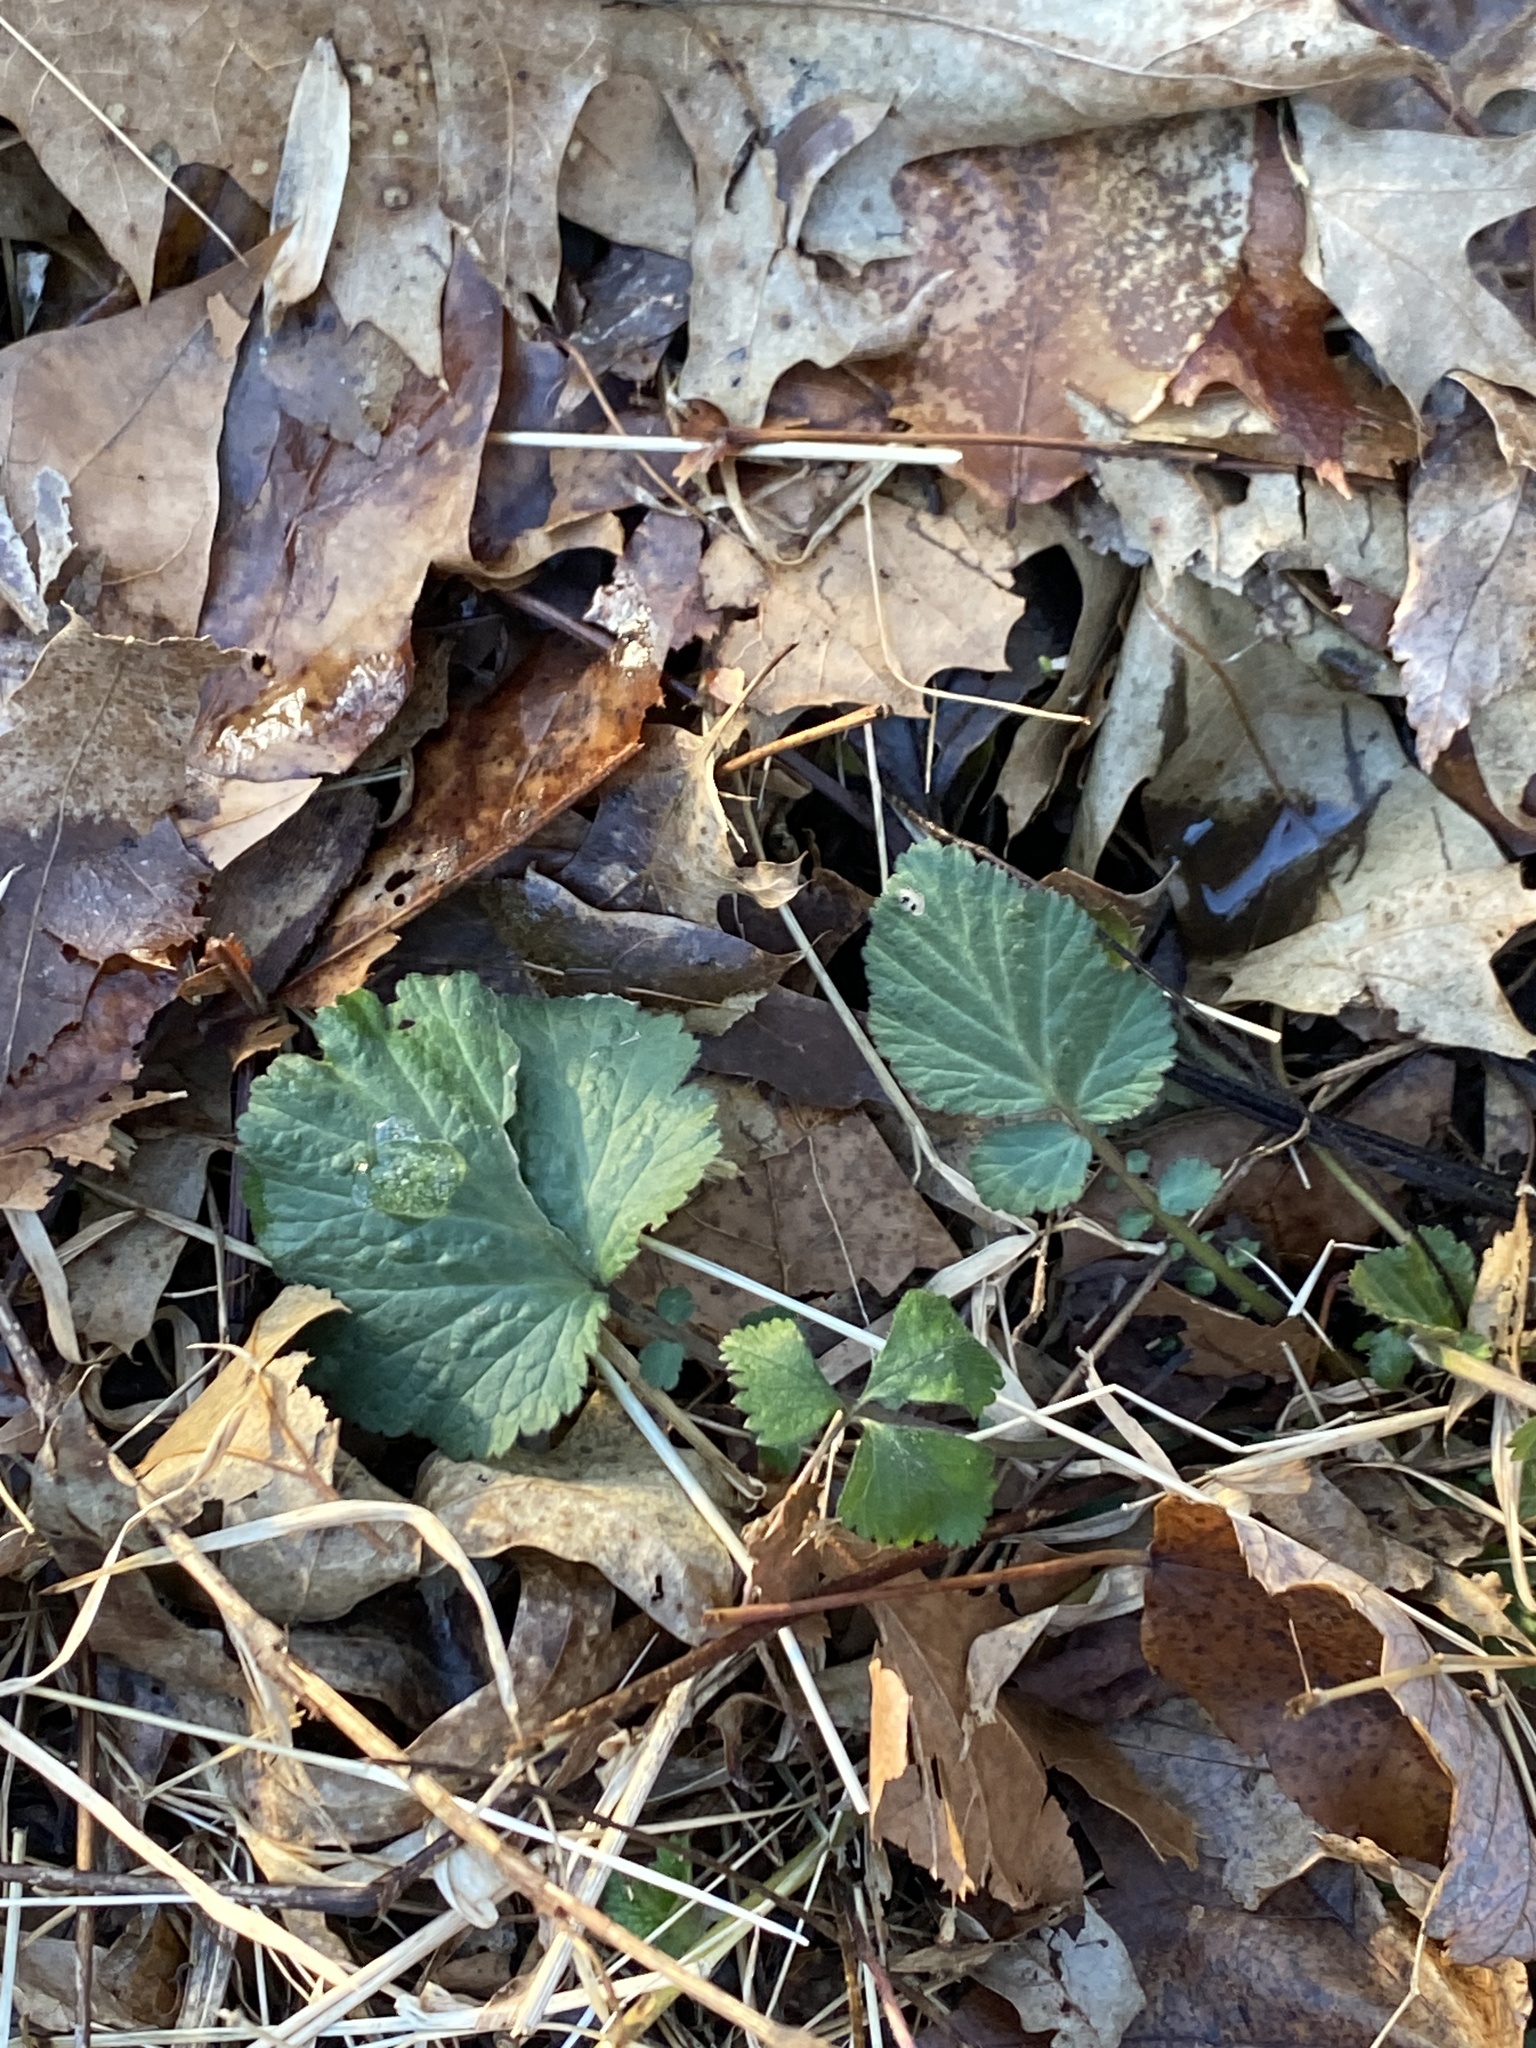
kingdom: Plantae
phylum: Tracheophyta
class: Magnoliopsida
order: Rosales
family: Rosaceae
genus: Geum
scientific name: Geum canadense
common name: White avens
